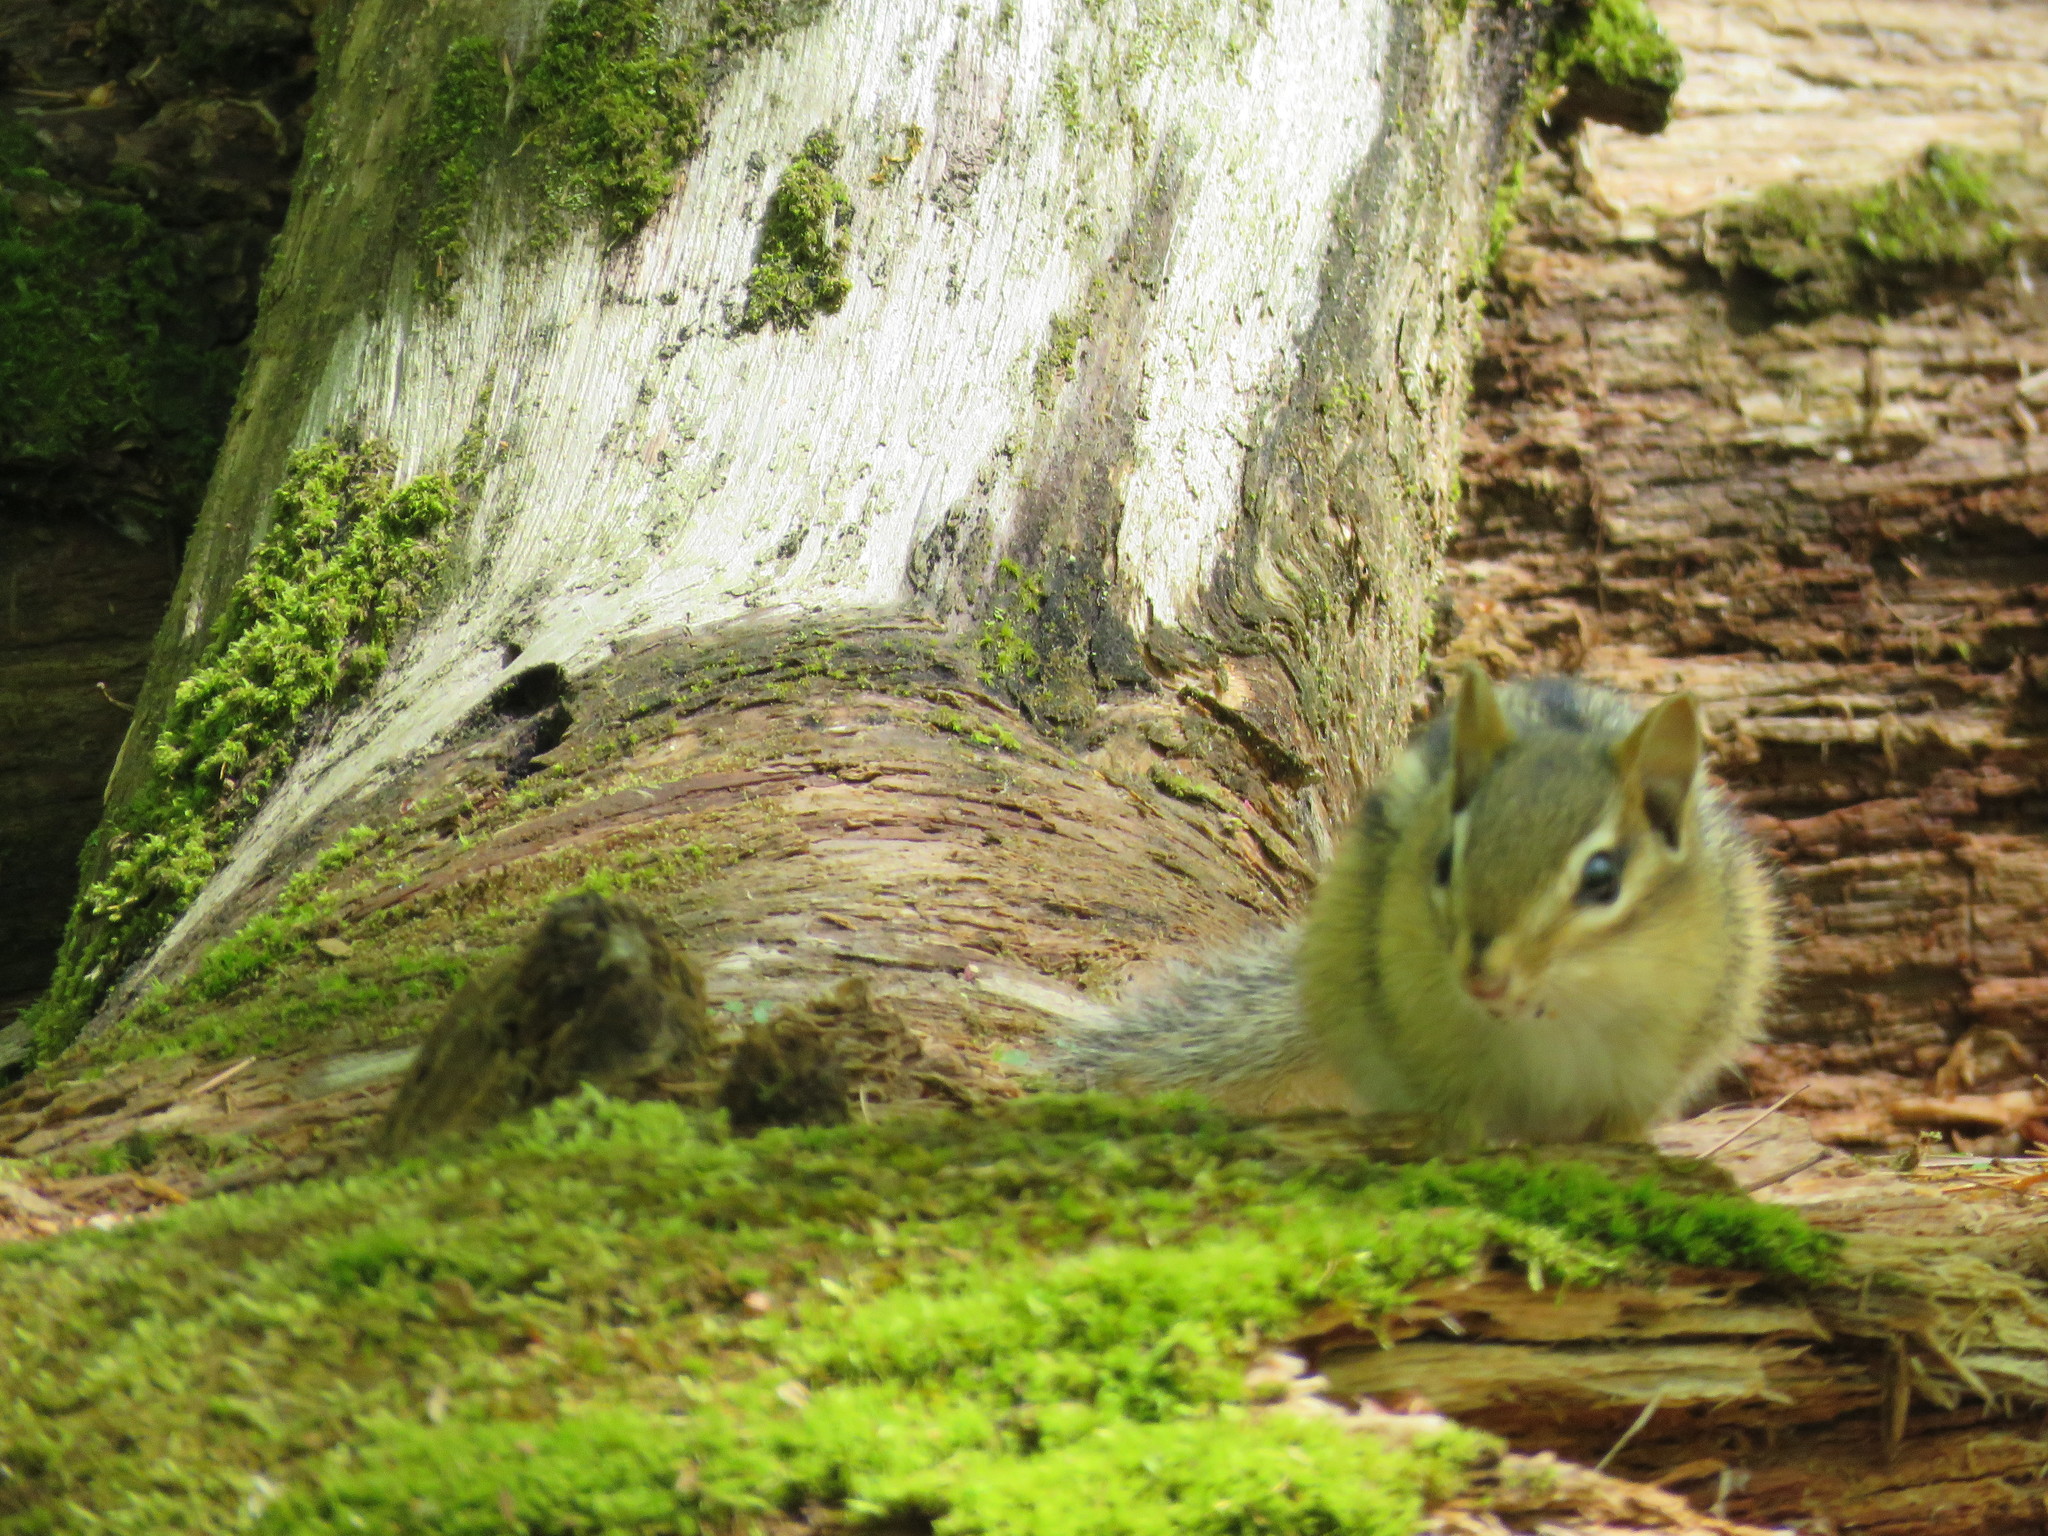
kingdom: Animalia
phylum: Chordata
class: Mammalia
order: Rodentia
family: Sciuridae
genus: Tamias
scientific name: Tamias striatus
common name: Eastern chipmunk
